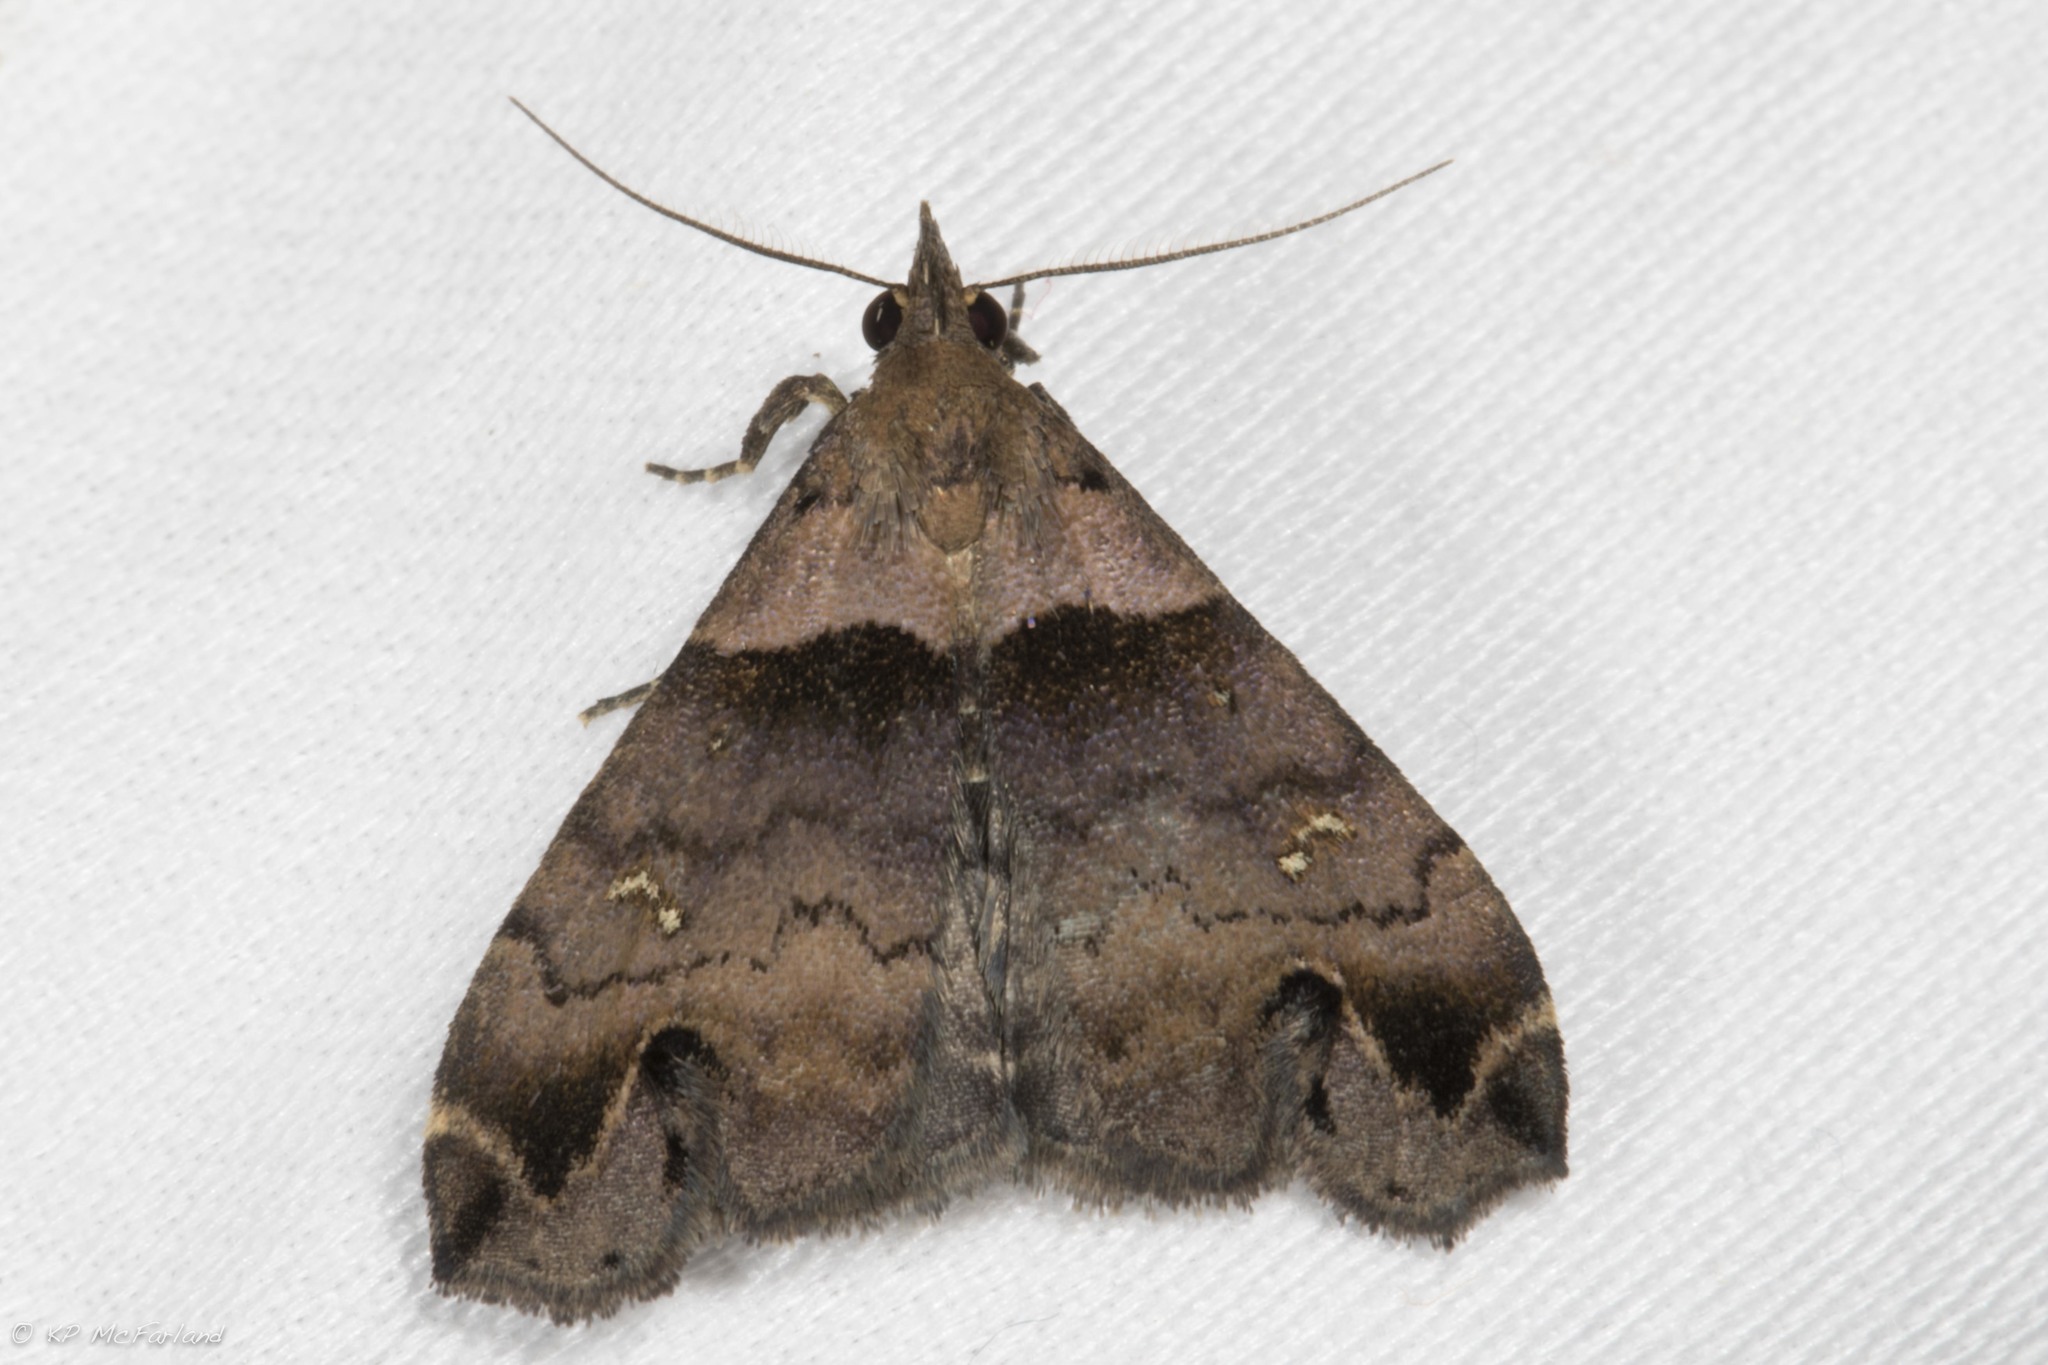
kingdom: Animalia
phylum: Arthropoda
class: Insecta
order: Lepidoptera
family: Erebidae
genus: Lascoria
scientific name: Lascoria ambigualis
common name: Ambiguous moth
